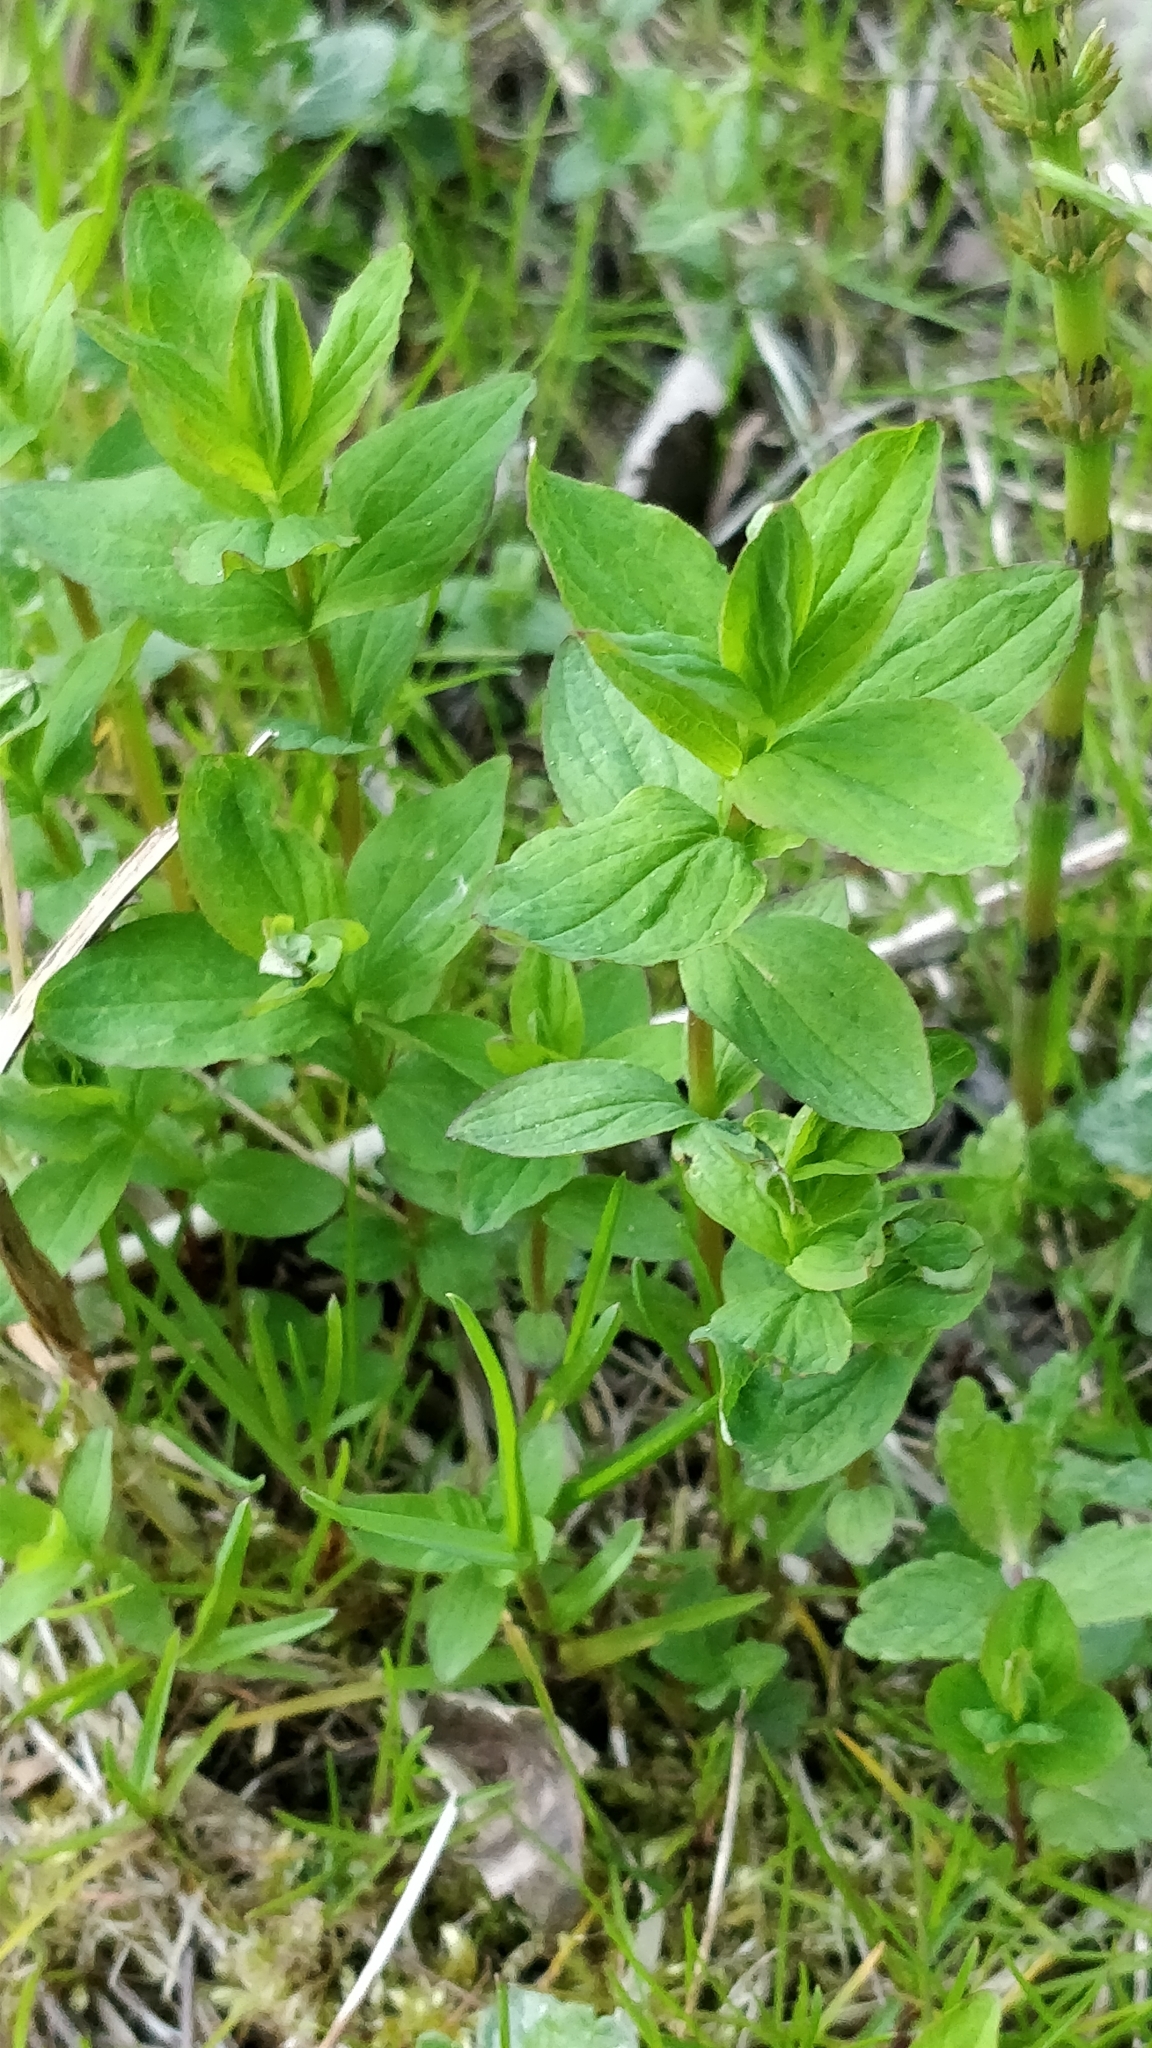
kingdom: Plantae
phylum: Tracheophyta
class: Magnoliopsida
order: Malpighiales
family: Hypericaceae
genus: Hypericum
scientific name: Hypericum maculatum
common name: Imperforate st. john's-wort
